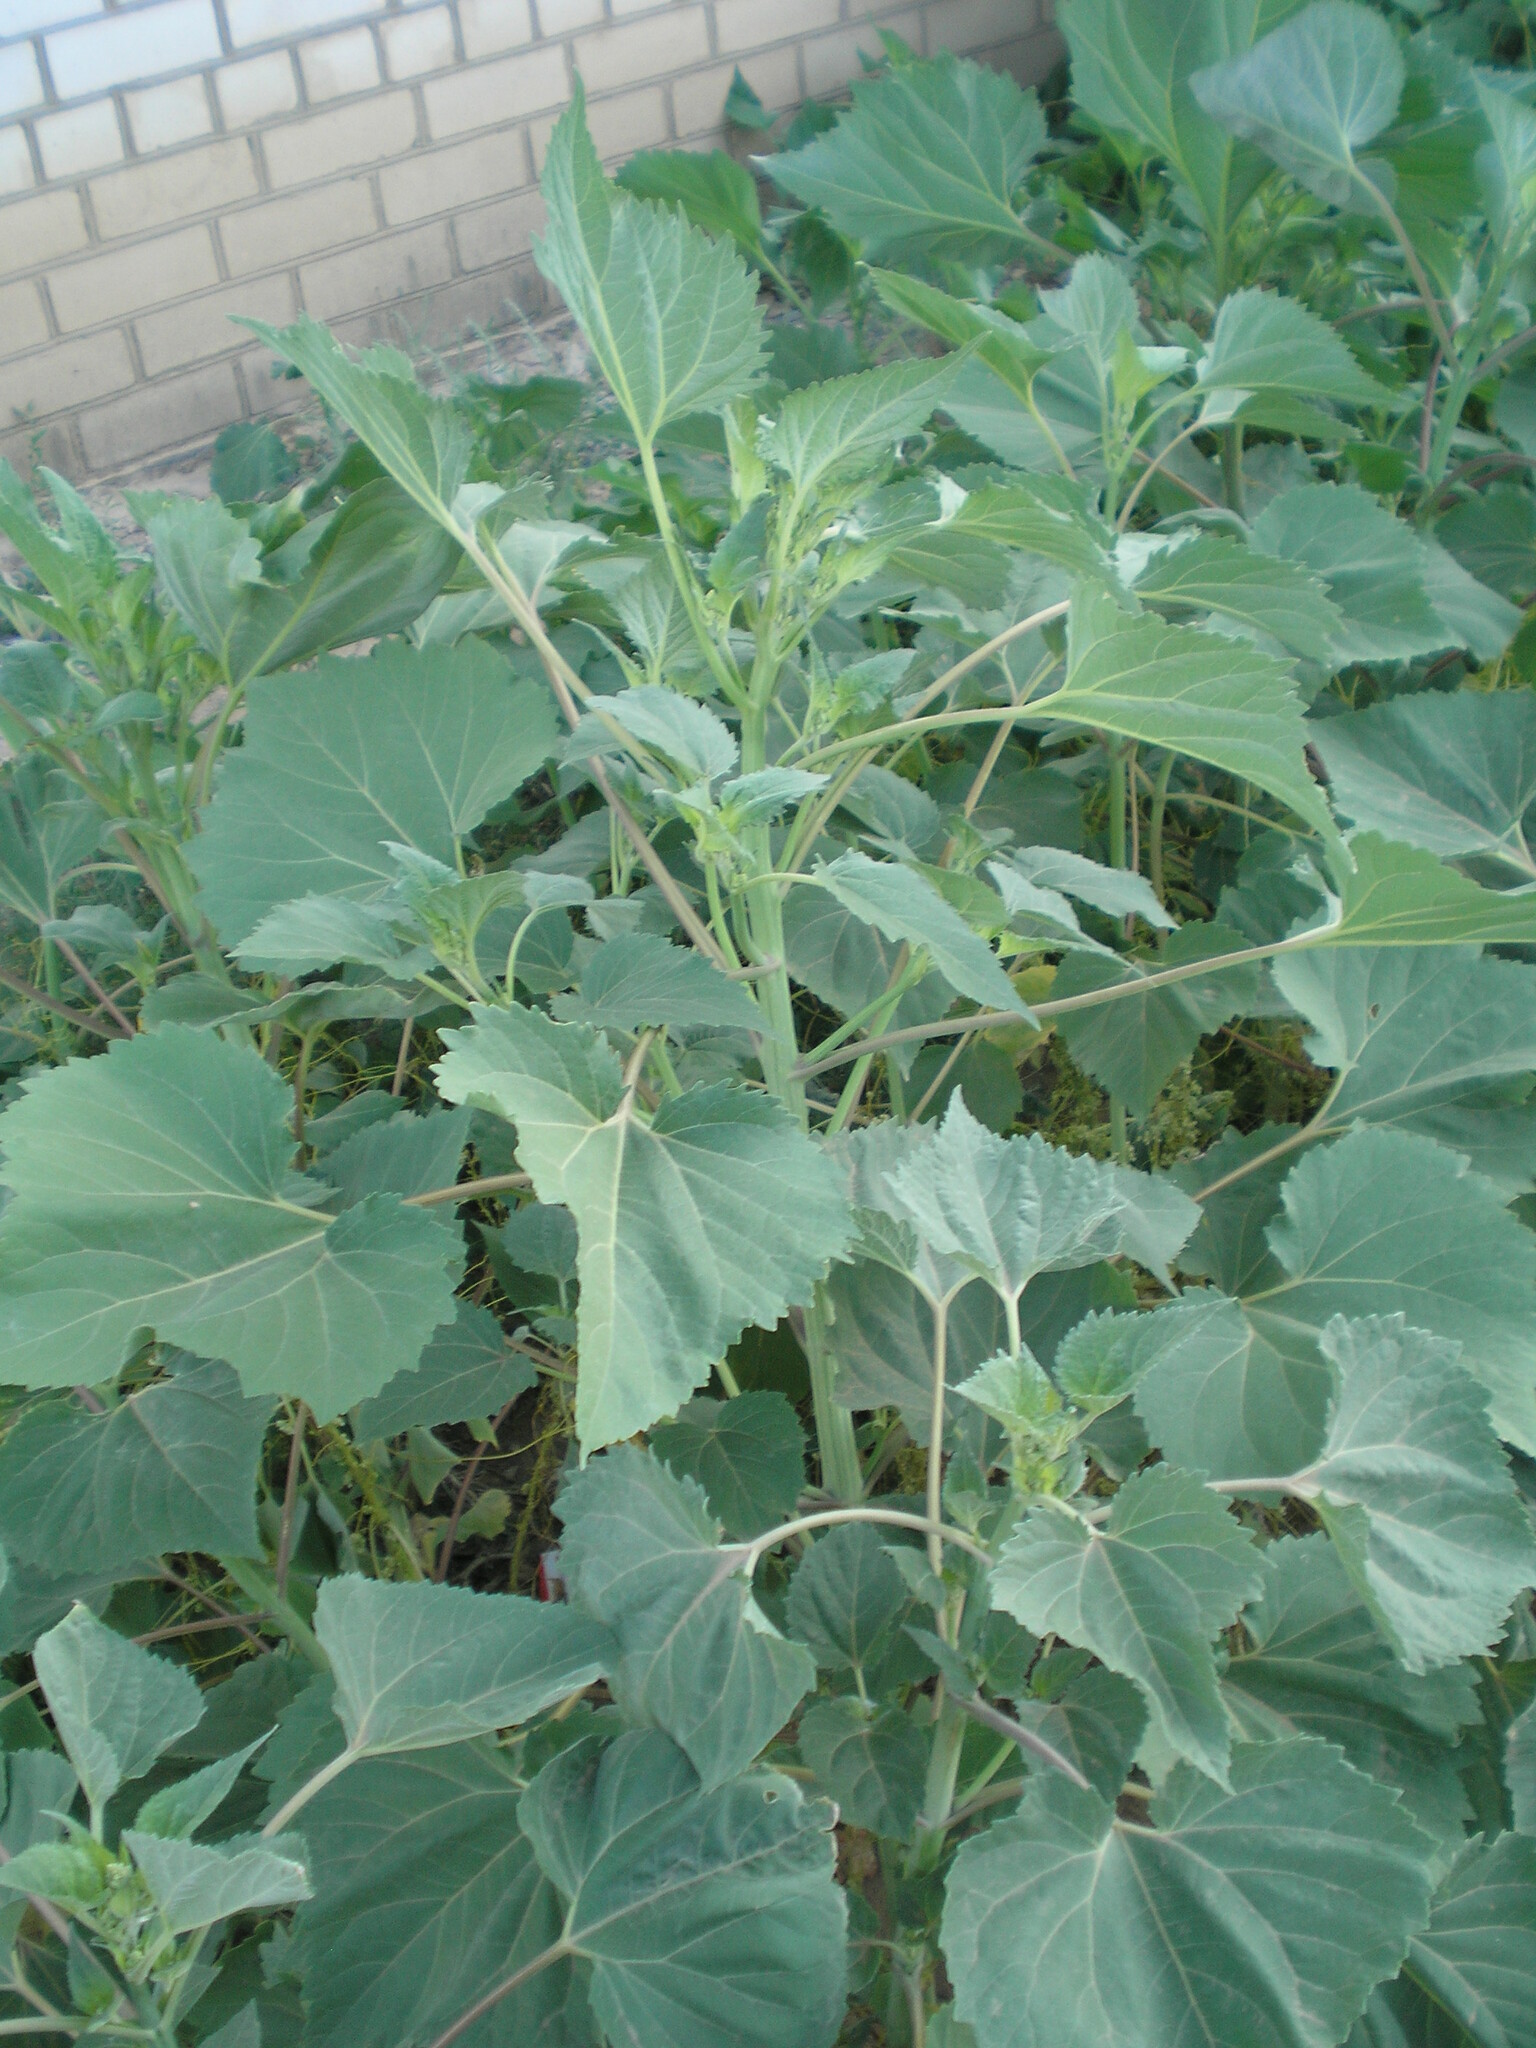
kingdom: Plantae
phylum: Tracheophyta
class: Magnoliopsida
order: Asterales
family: Asteraceae
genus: Cyclachaena
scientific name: Cyclachaena xanthiifolia
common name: Giant sumpweed
